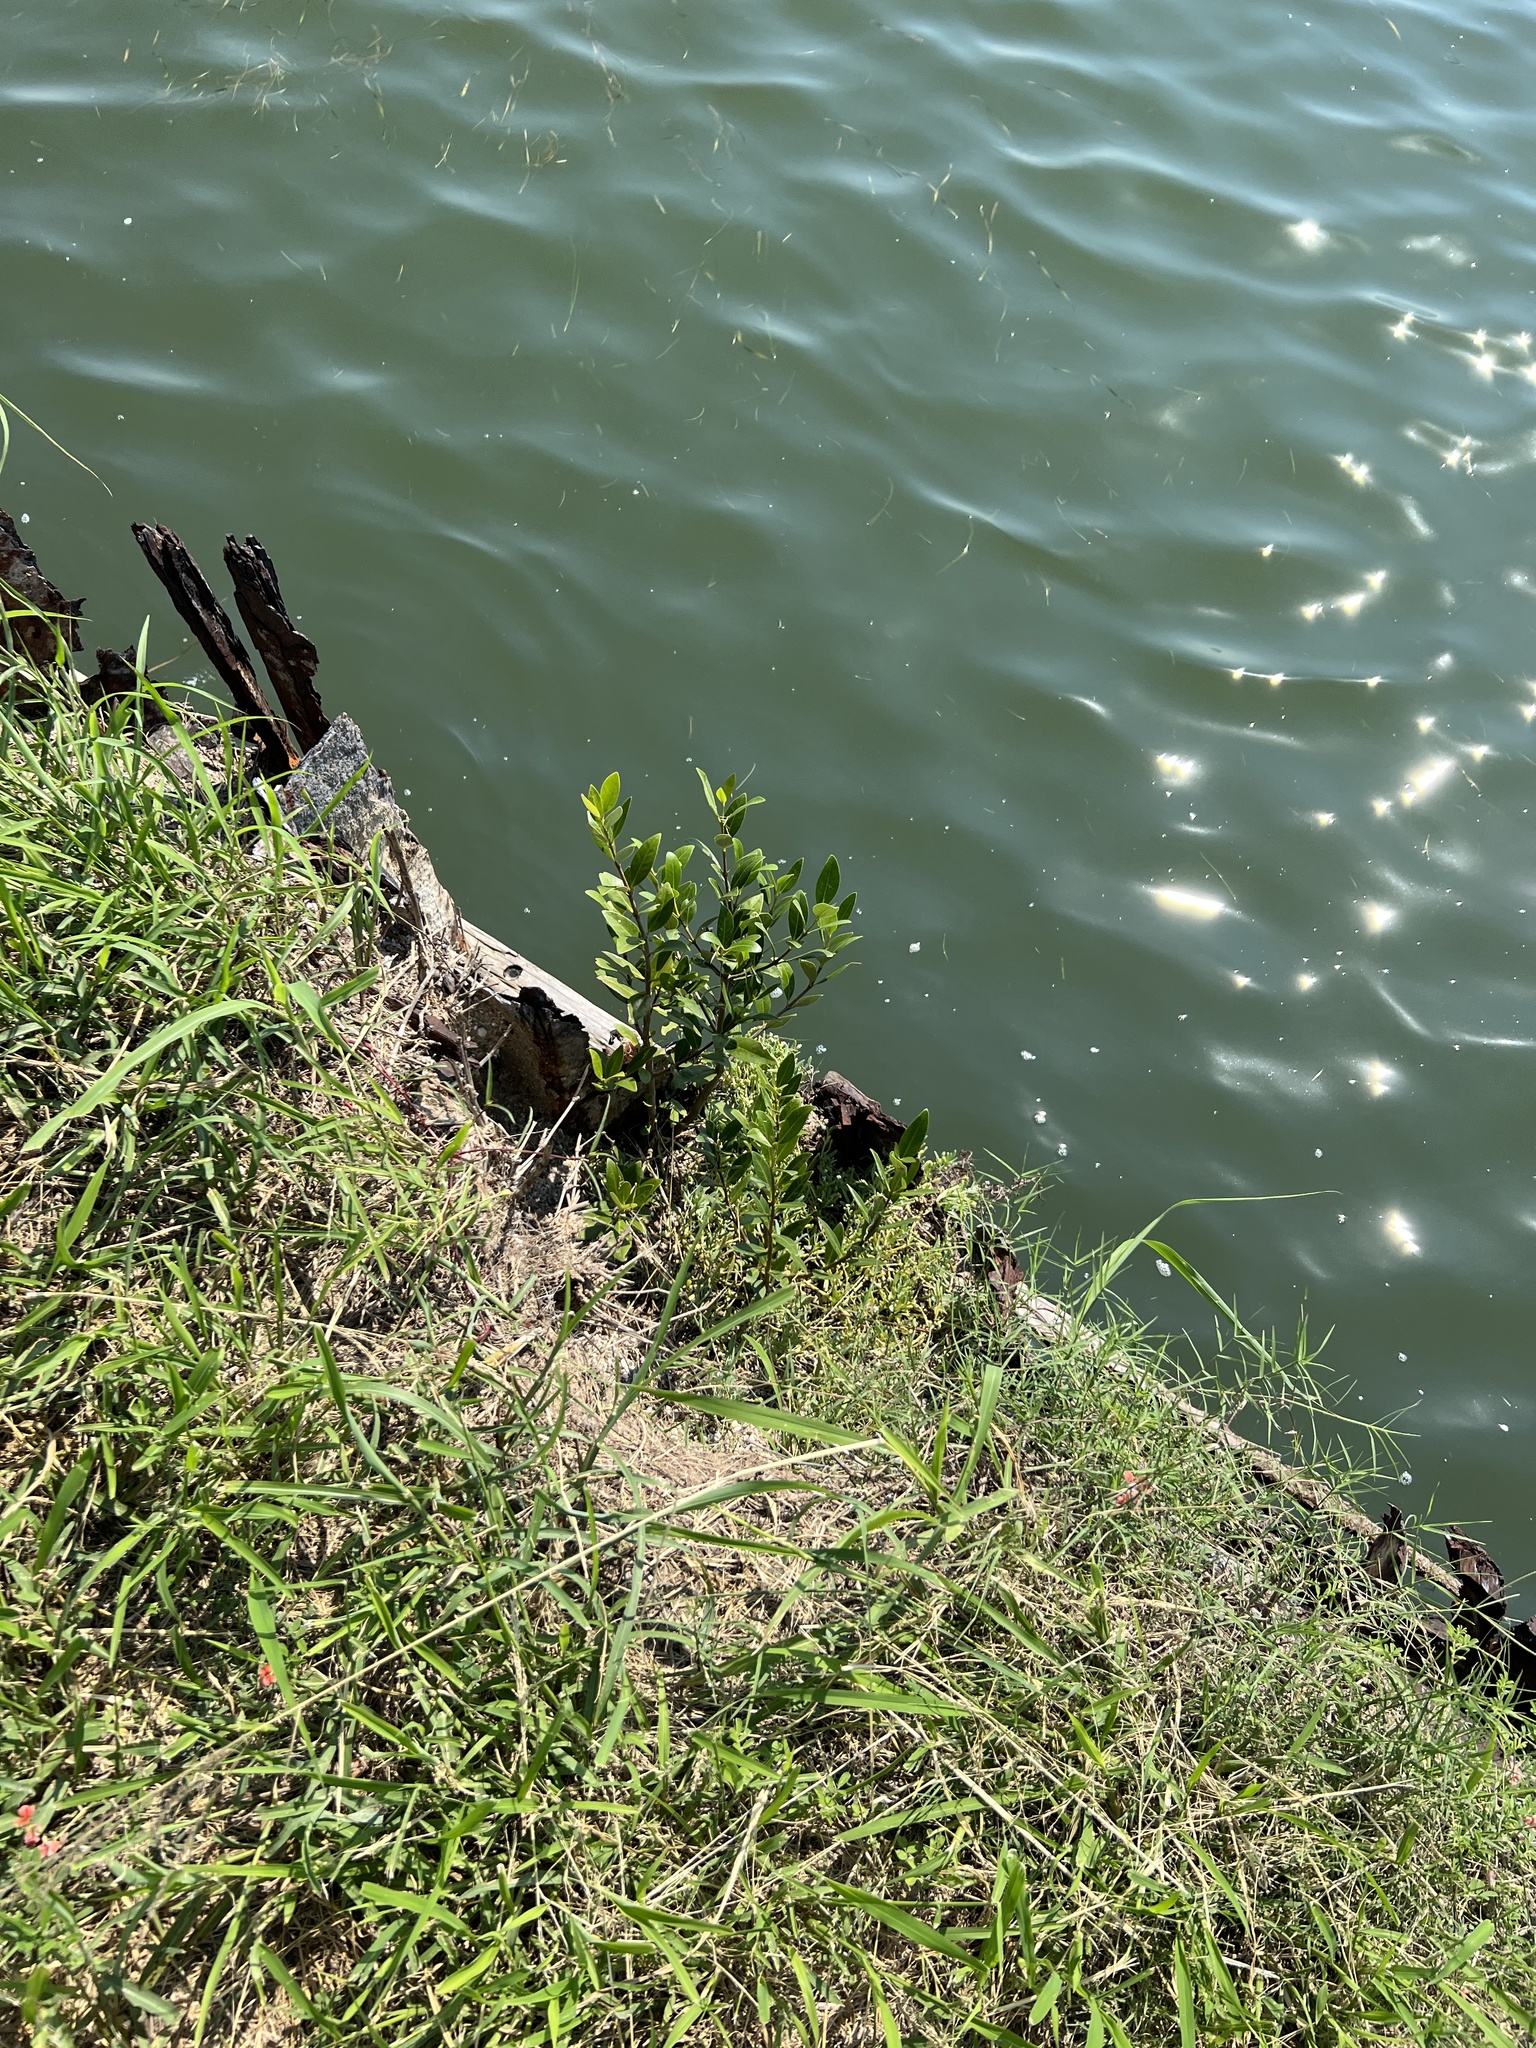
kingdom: Plantae
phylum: Tracheophyta
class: Liliopsida
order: Poales
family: Poaceae
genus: Cynodon
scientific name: Cynodon dactylon
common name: Bermuda grass
